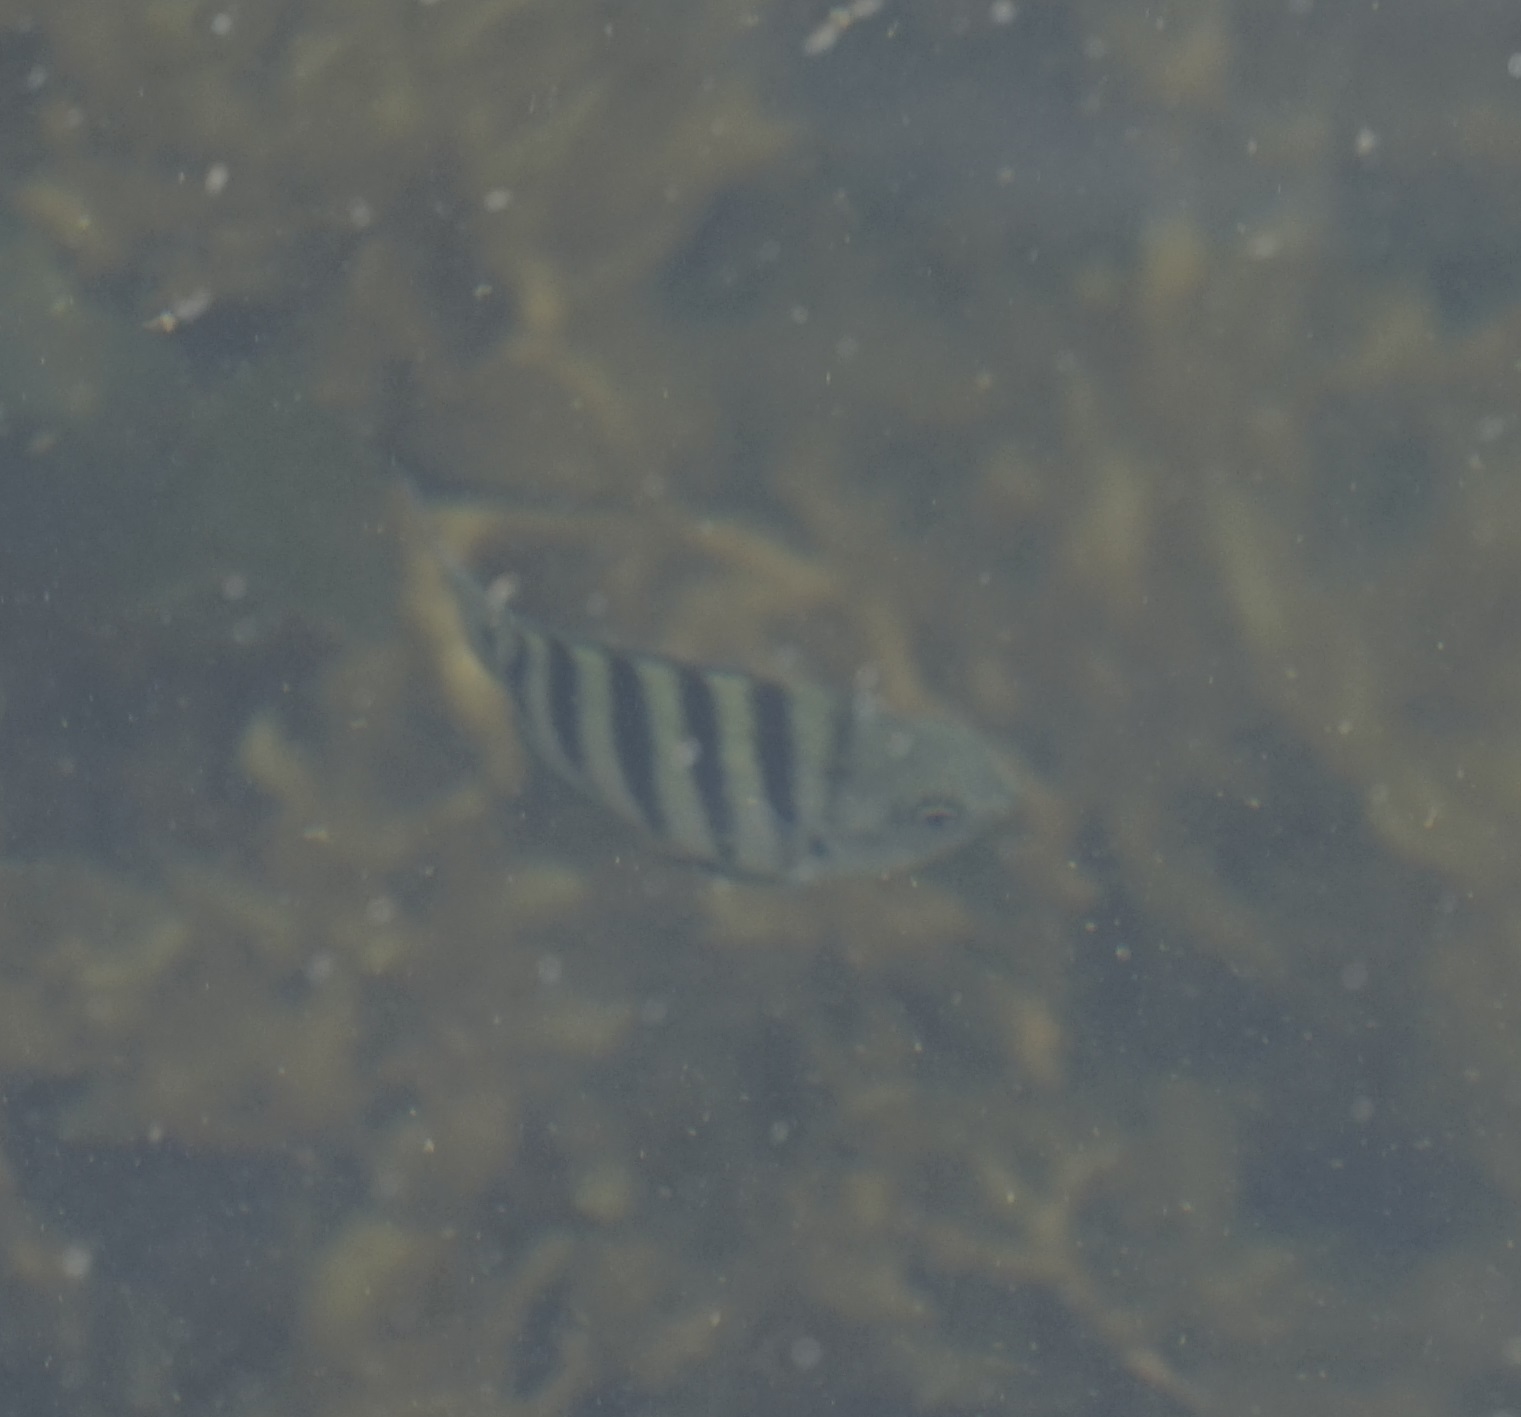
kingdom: Animalia
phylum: Chordata
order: Perciformes
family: Pomacentridae
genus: Abudefduf
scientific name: Abudefduf bengalensis
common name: Bengal sergeant
